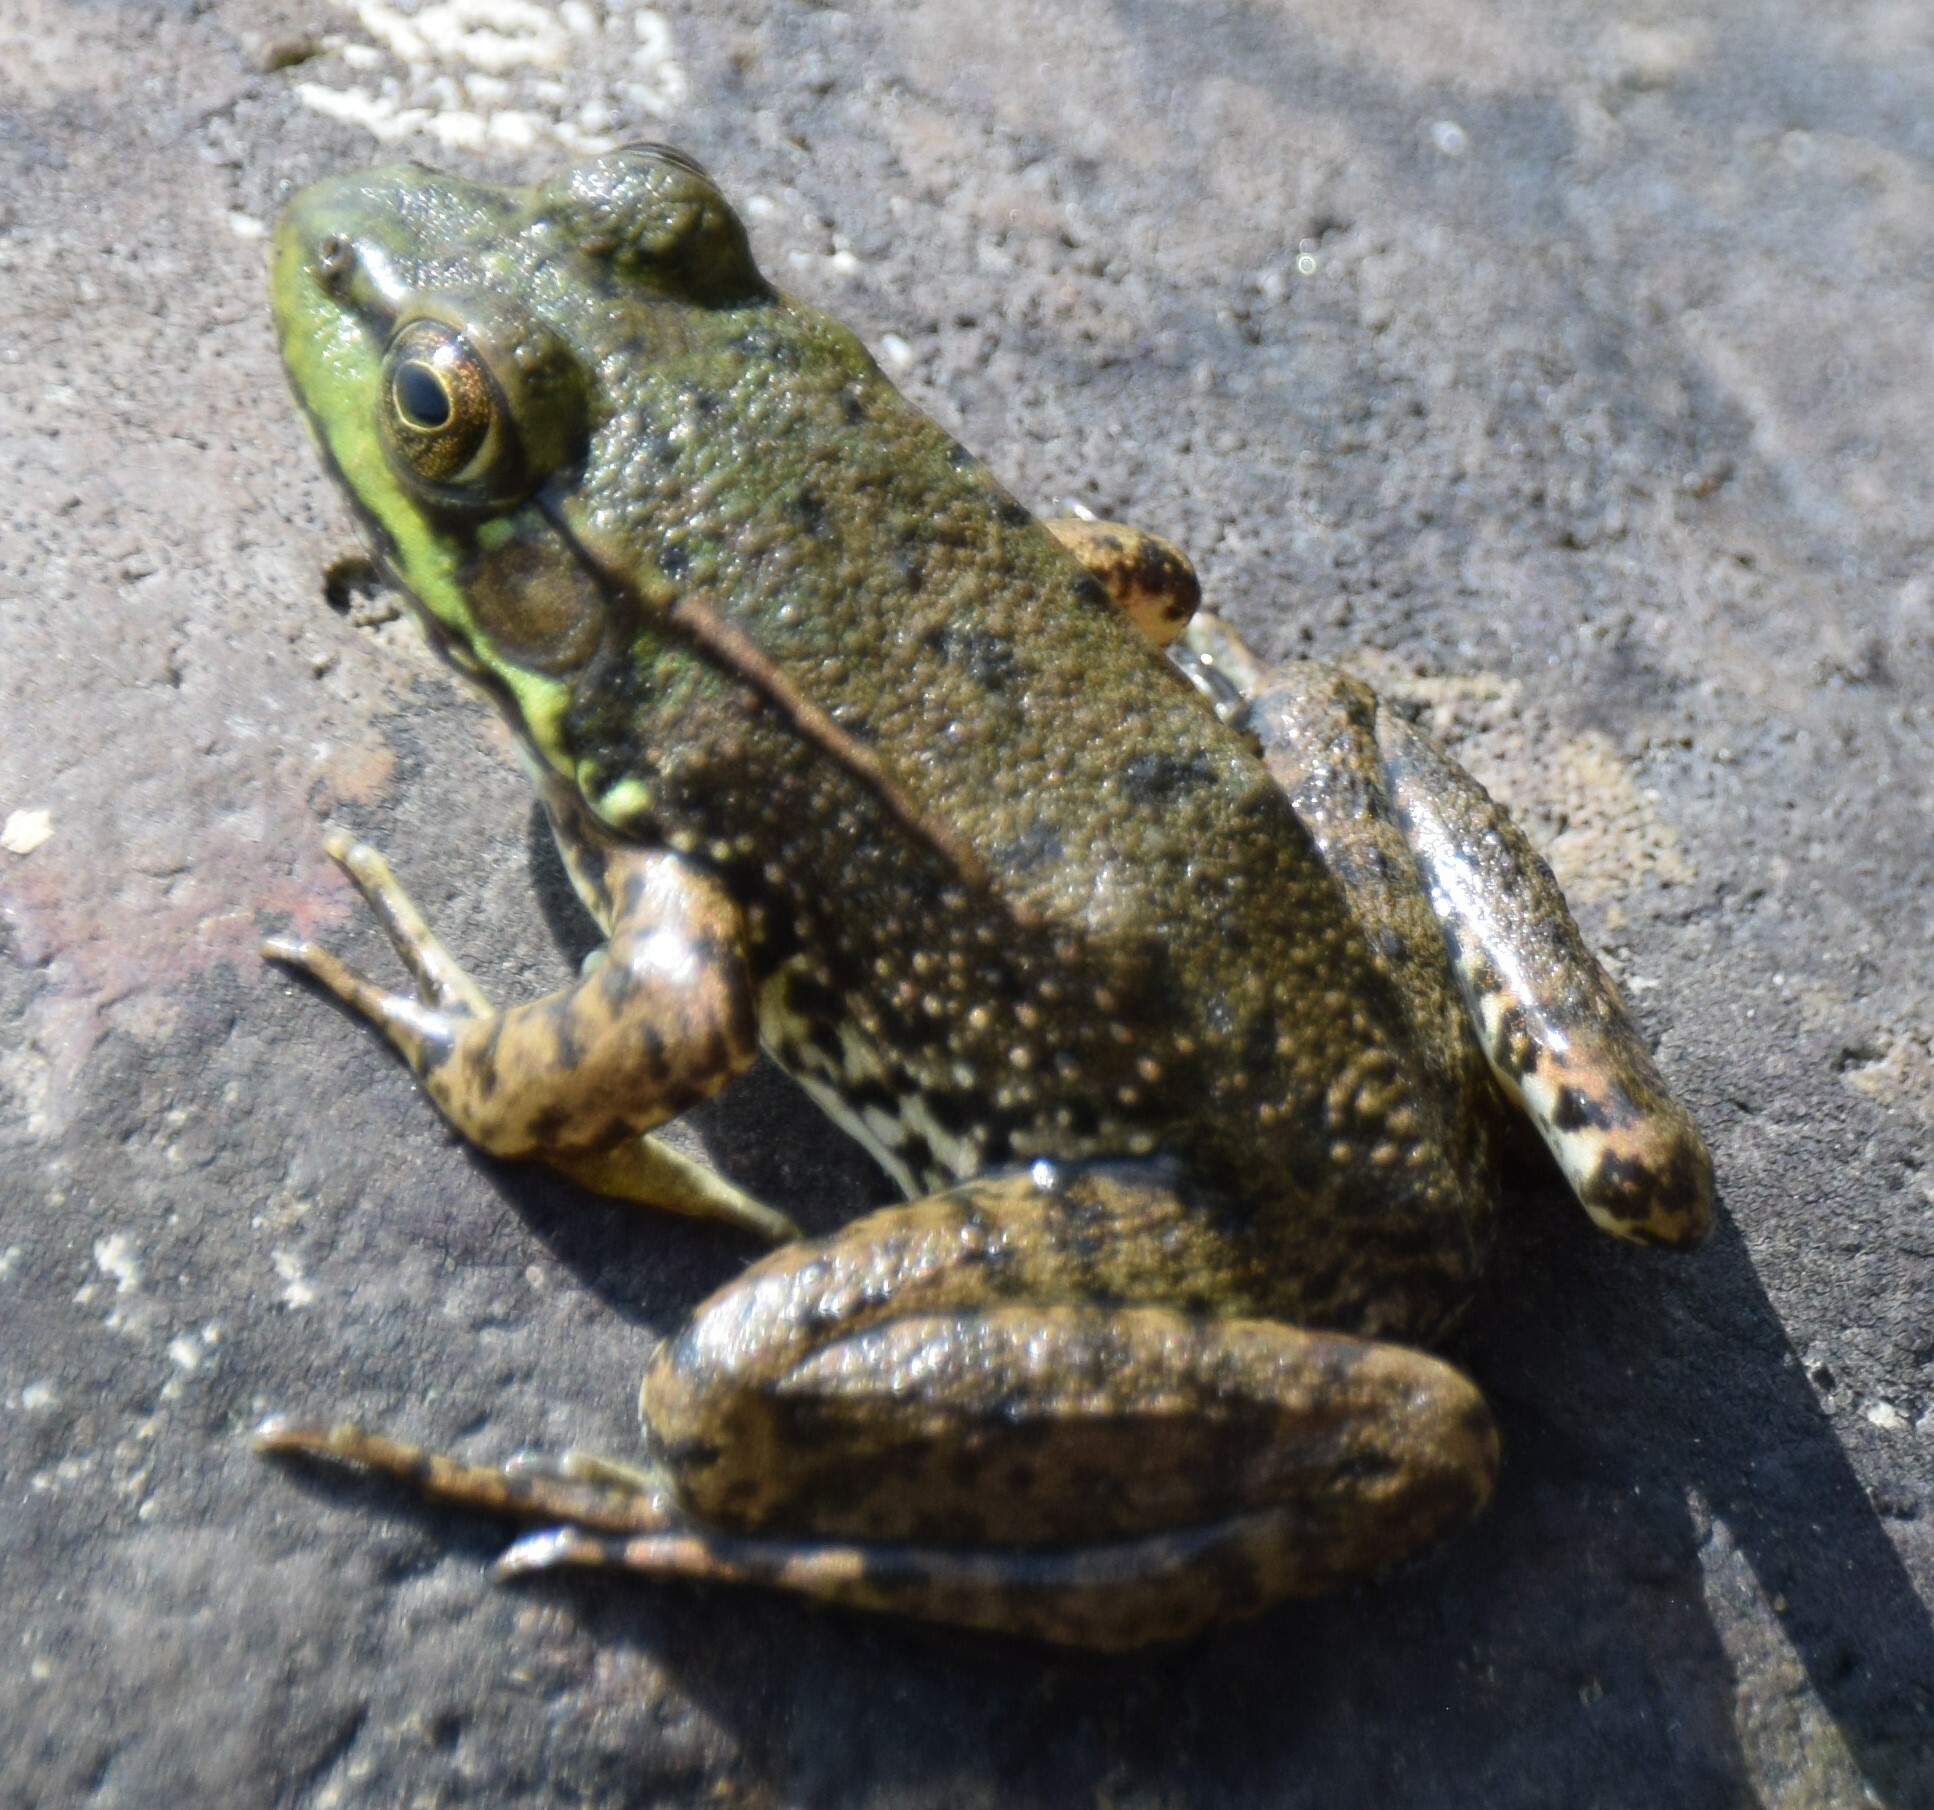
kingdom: Animalia
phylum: Chordata
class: Amphibia
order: Anura
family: Ranidae
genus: Lithobates
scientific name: Lithobates clamitans
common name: Green frog
